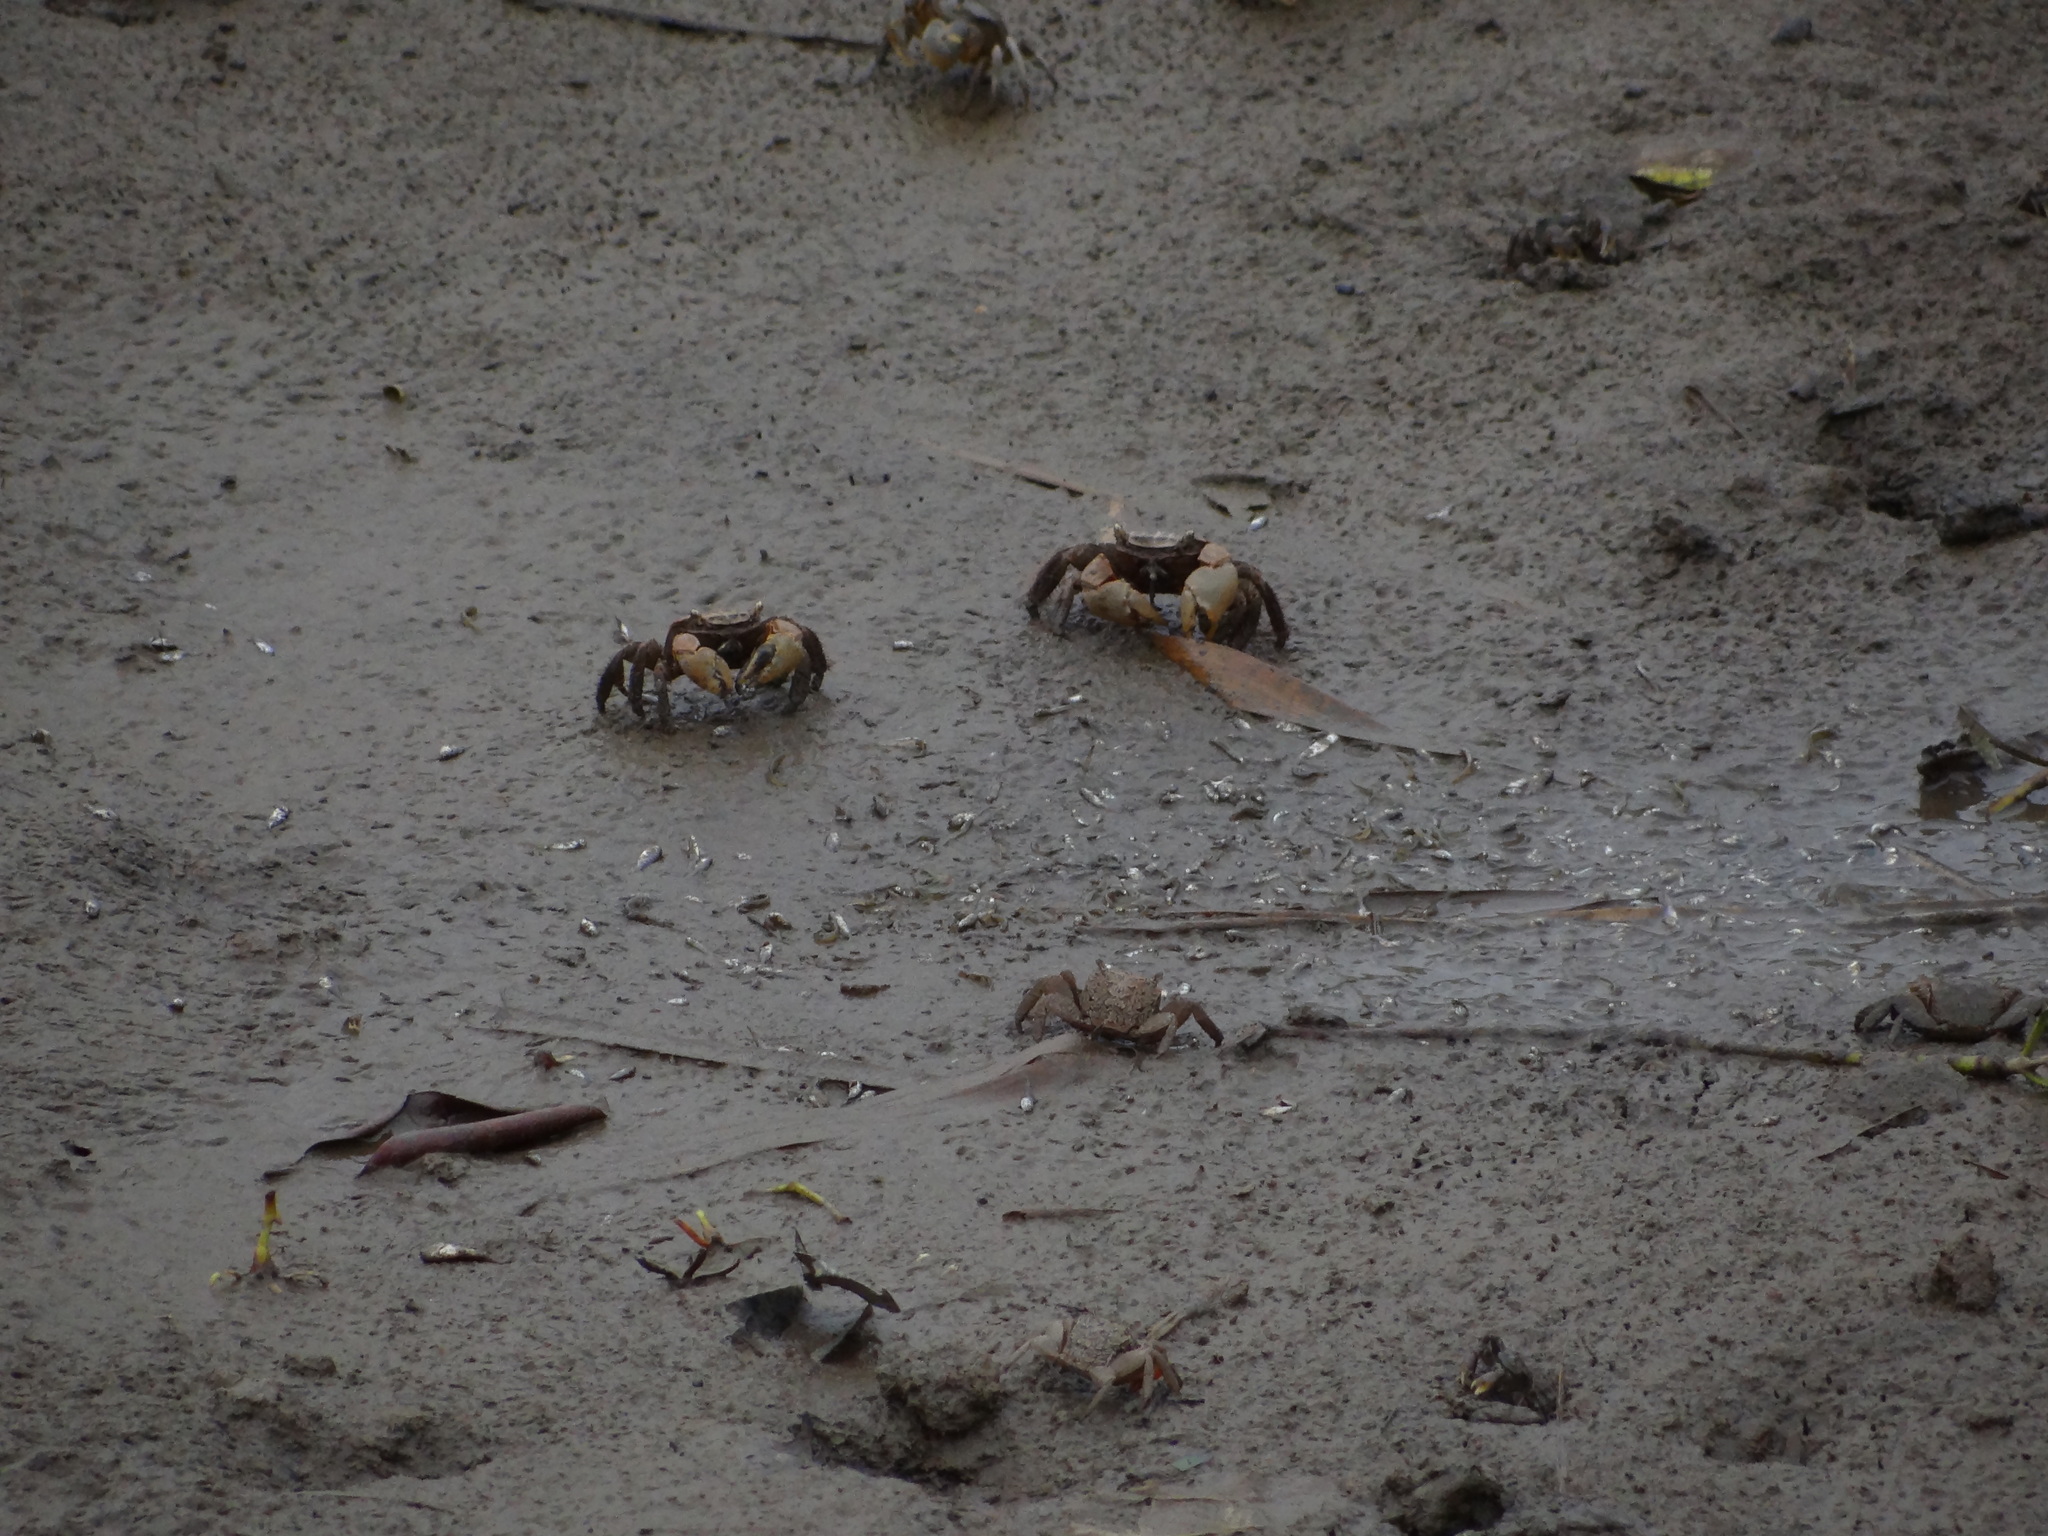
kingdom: Animalia
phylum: Arthropoda
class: Malacostraca
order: Decapoda
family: Varunidae
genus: Helice
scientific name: Helice formosensis
